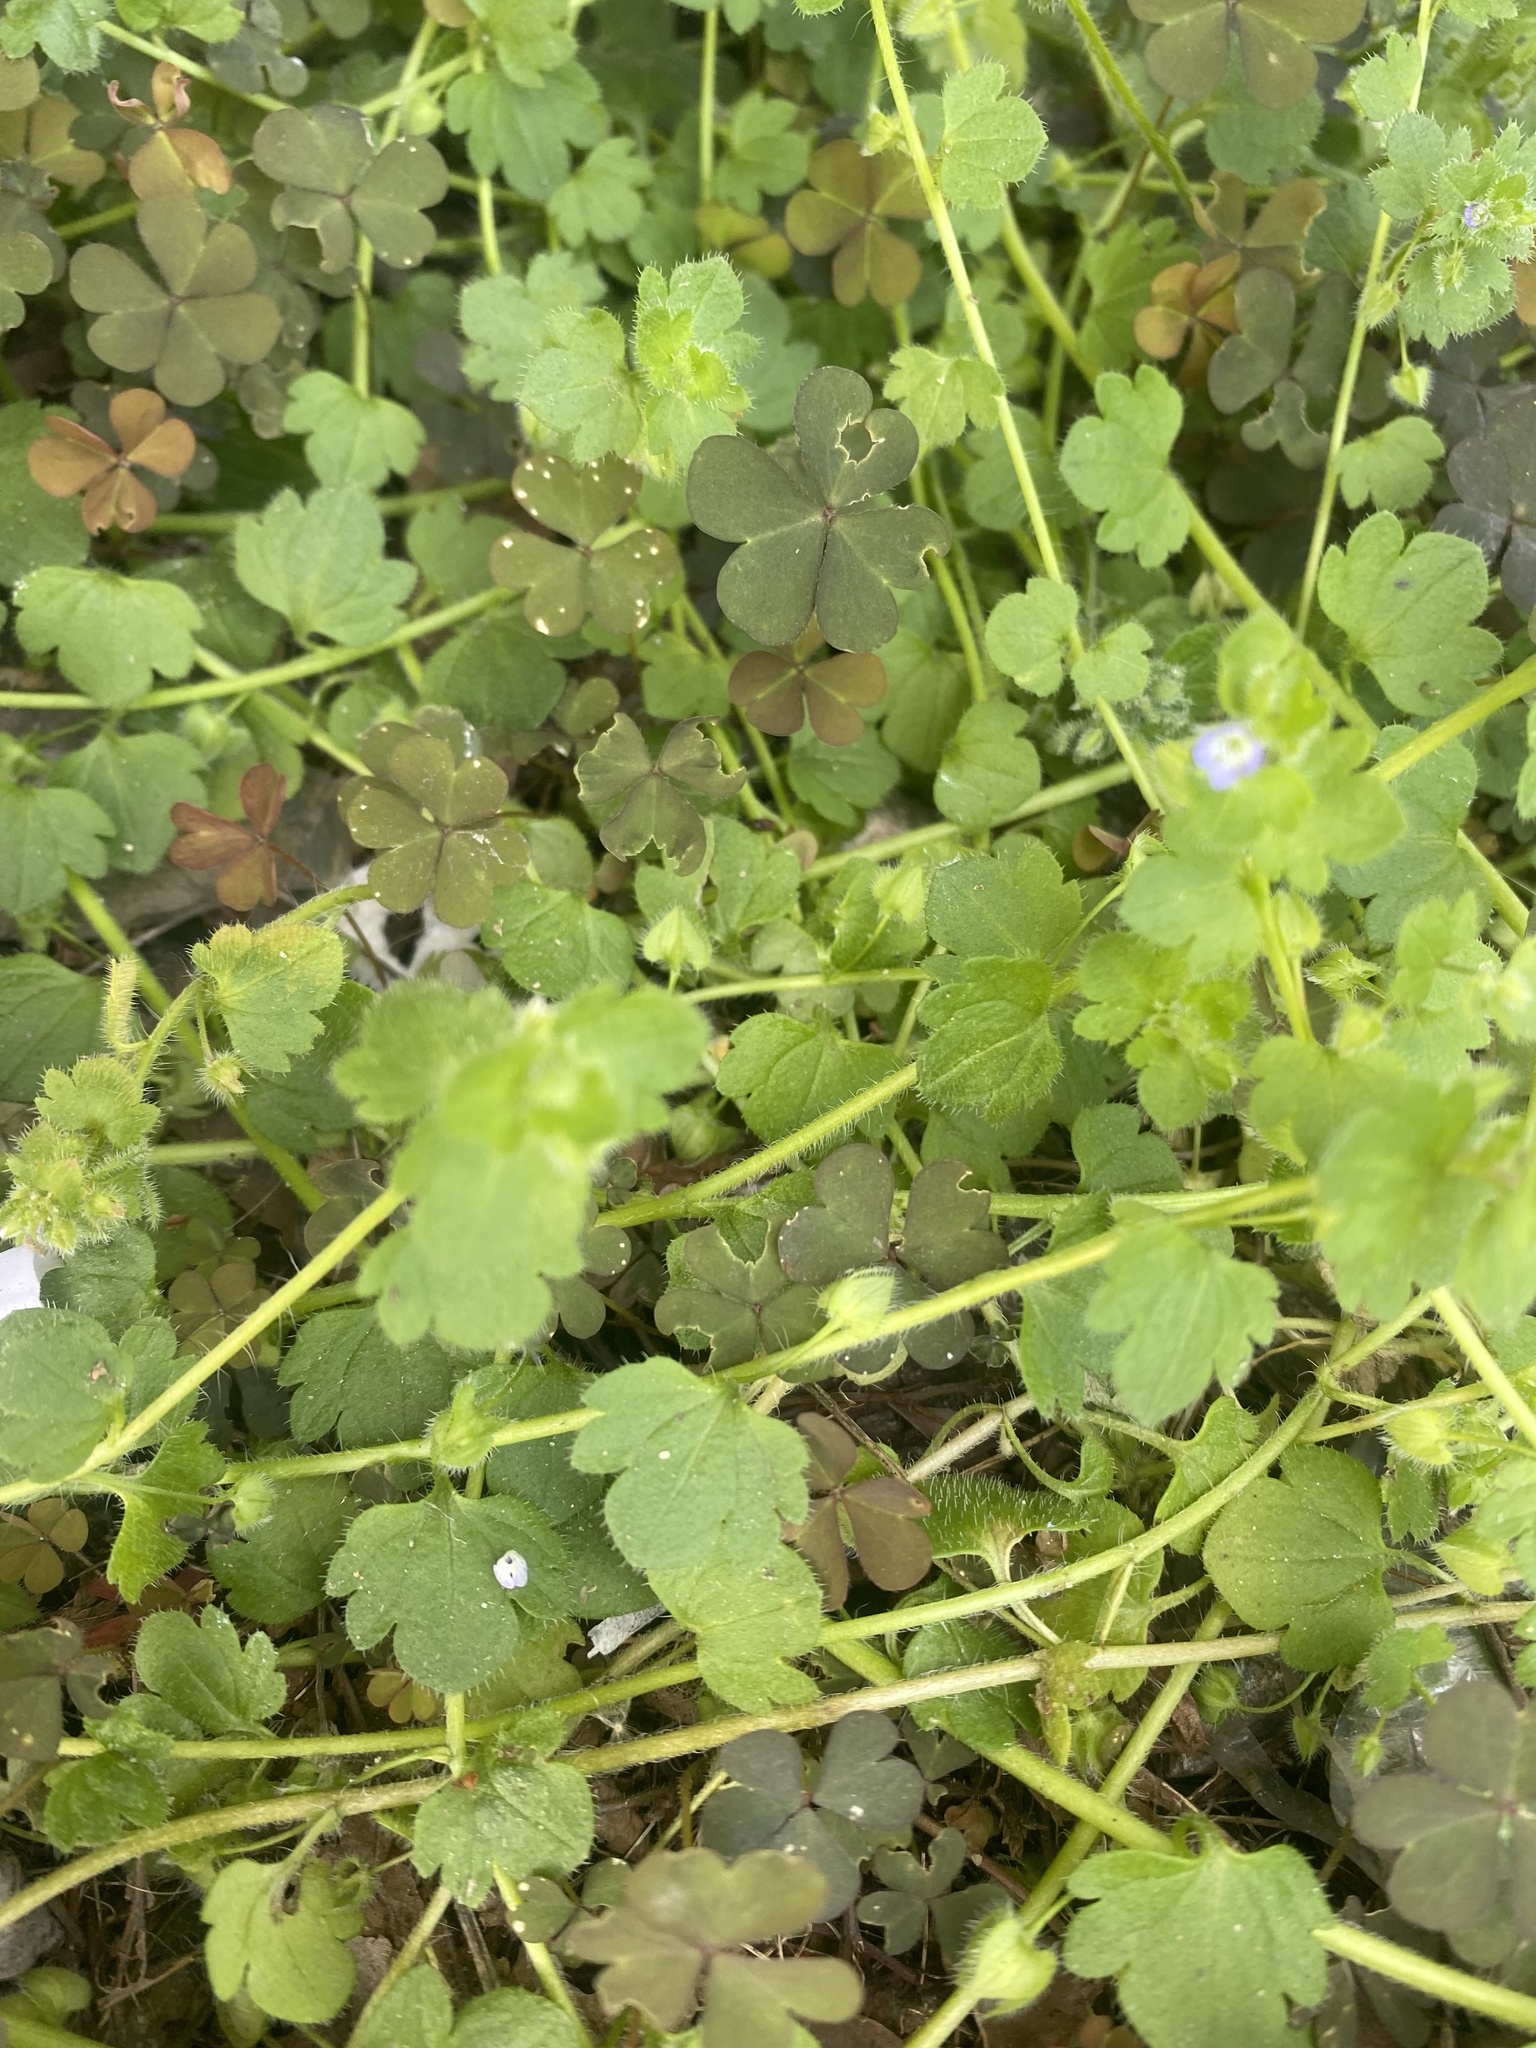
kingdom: Plantae
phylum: Tracheophyta
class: Magnoliopsida
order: Lamiales
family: Plantaginaceae
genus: Veronica
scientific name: Veronica hederifolia
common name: Ivy-leaved speedwell
